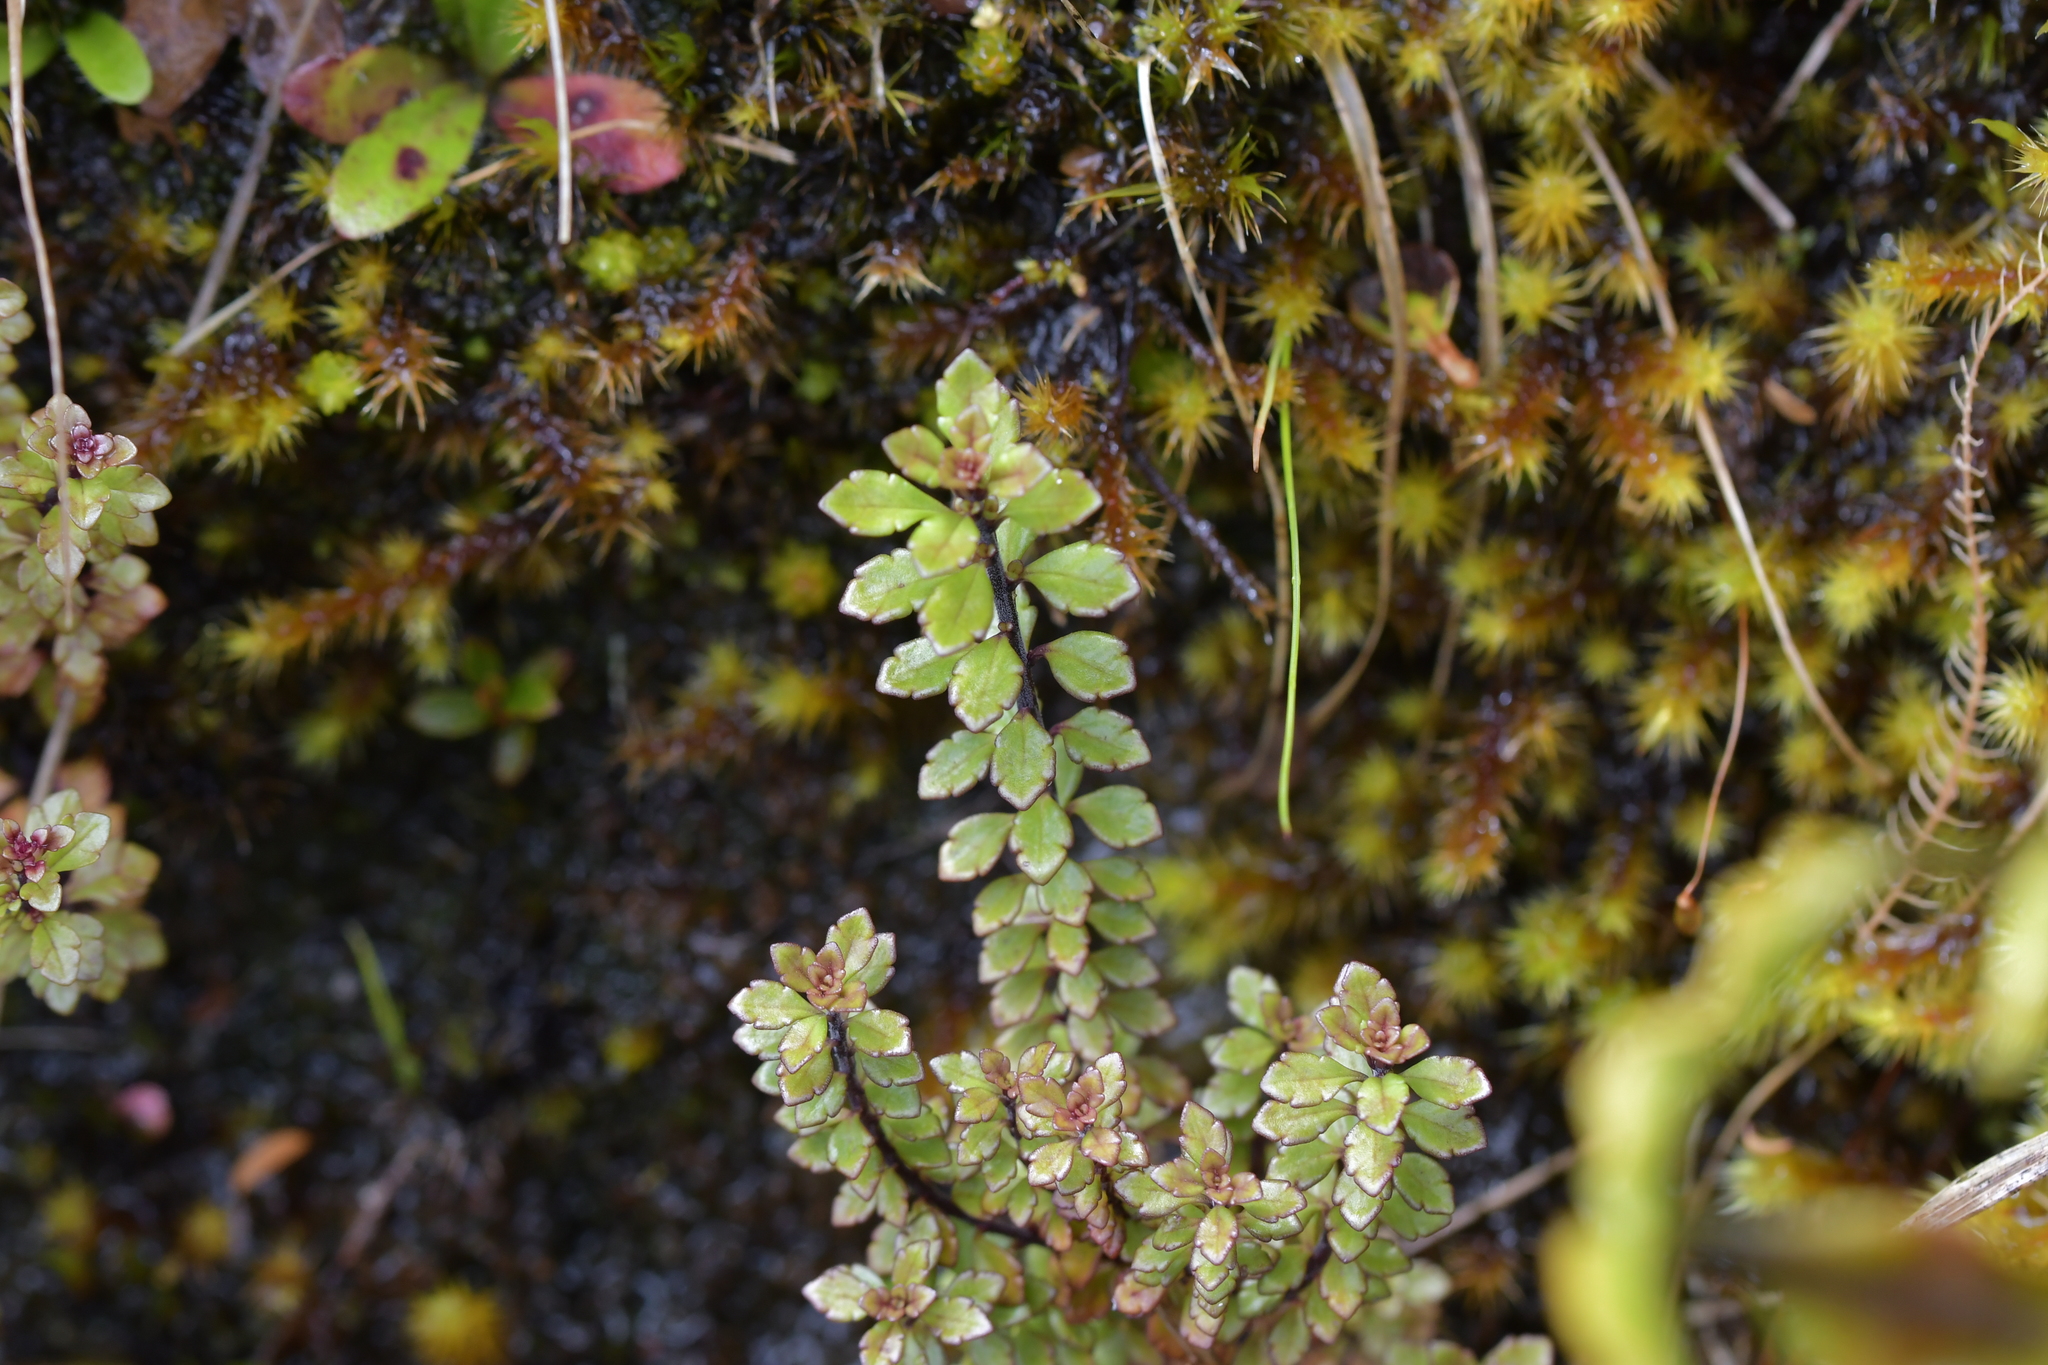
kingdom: Plantae
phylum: Tracheophyta
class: Magnoliopsida
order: Lamiales
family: Orobanchaceae
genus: Euphrasia
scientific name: Euphrasia cuneata
